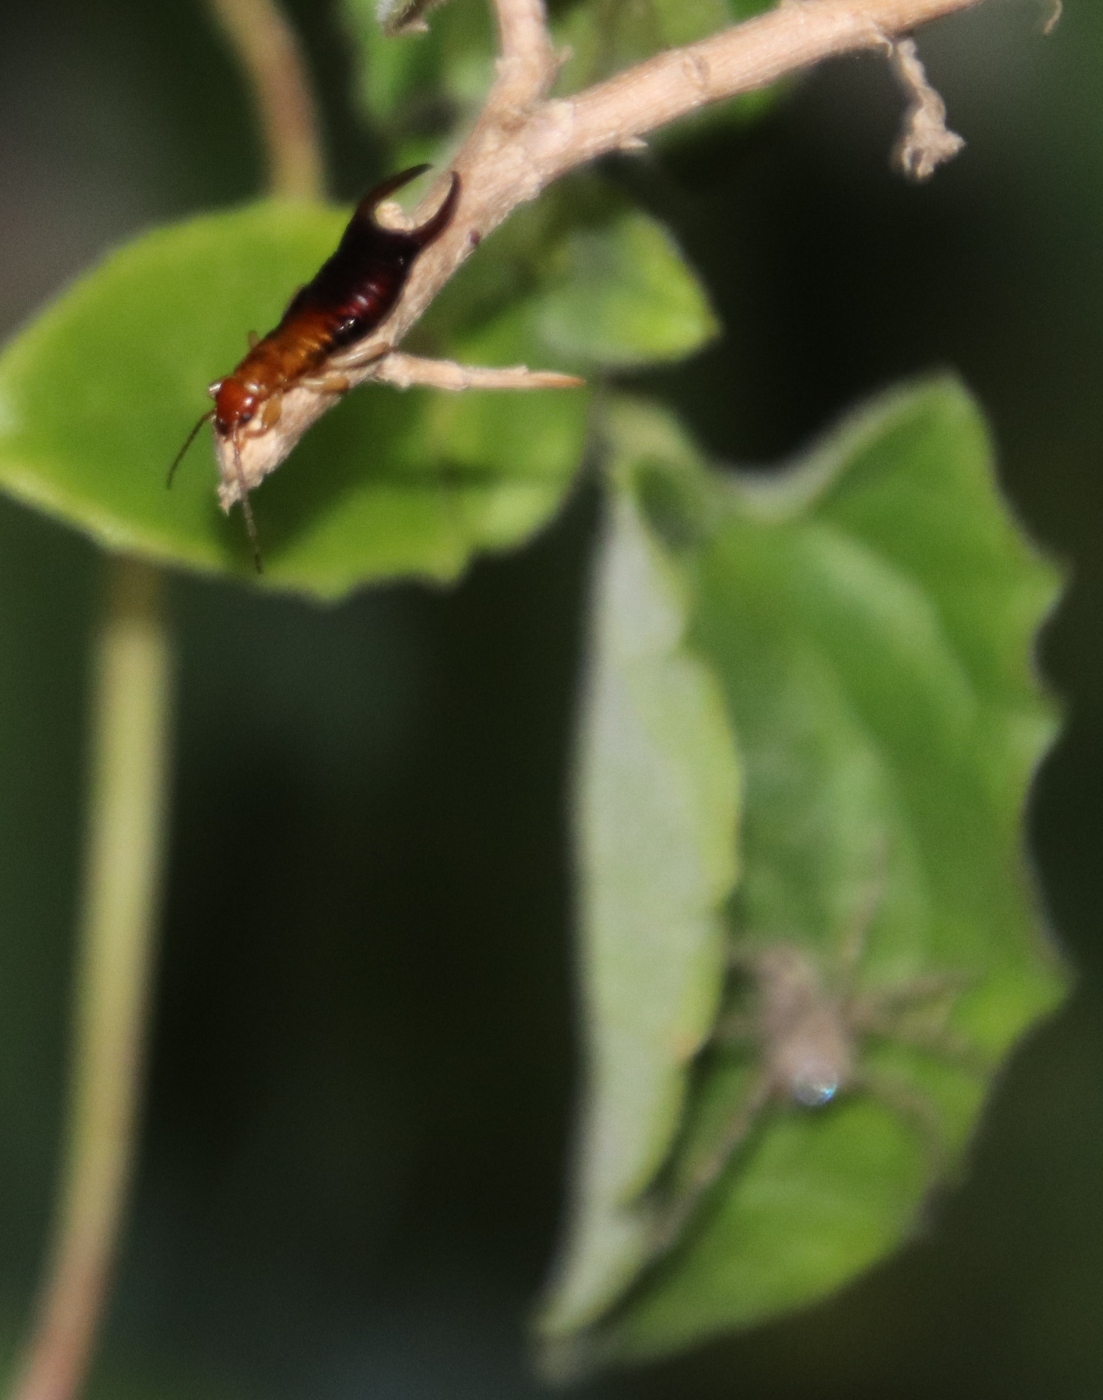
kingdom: Animalia
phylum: Arthropoda
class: Insecta
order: Dermaptera
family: Forficulidae
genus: Proforficula
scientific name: Proforficula promontorii
